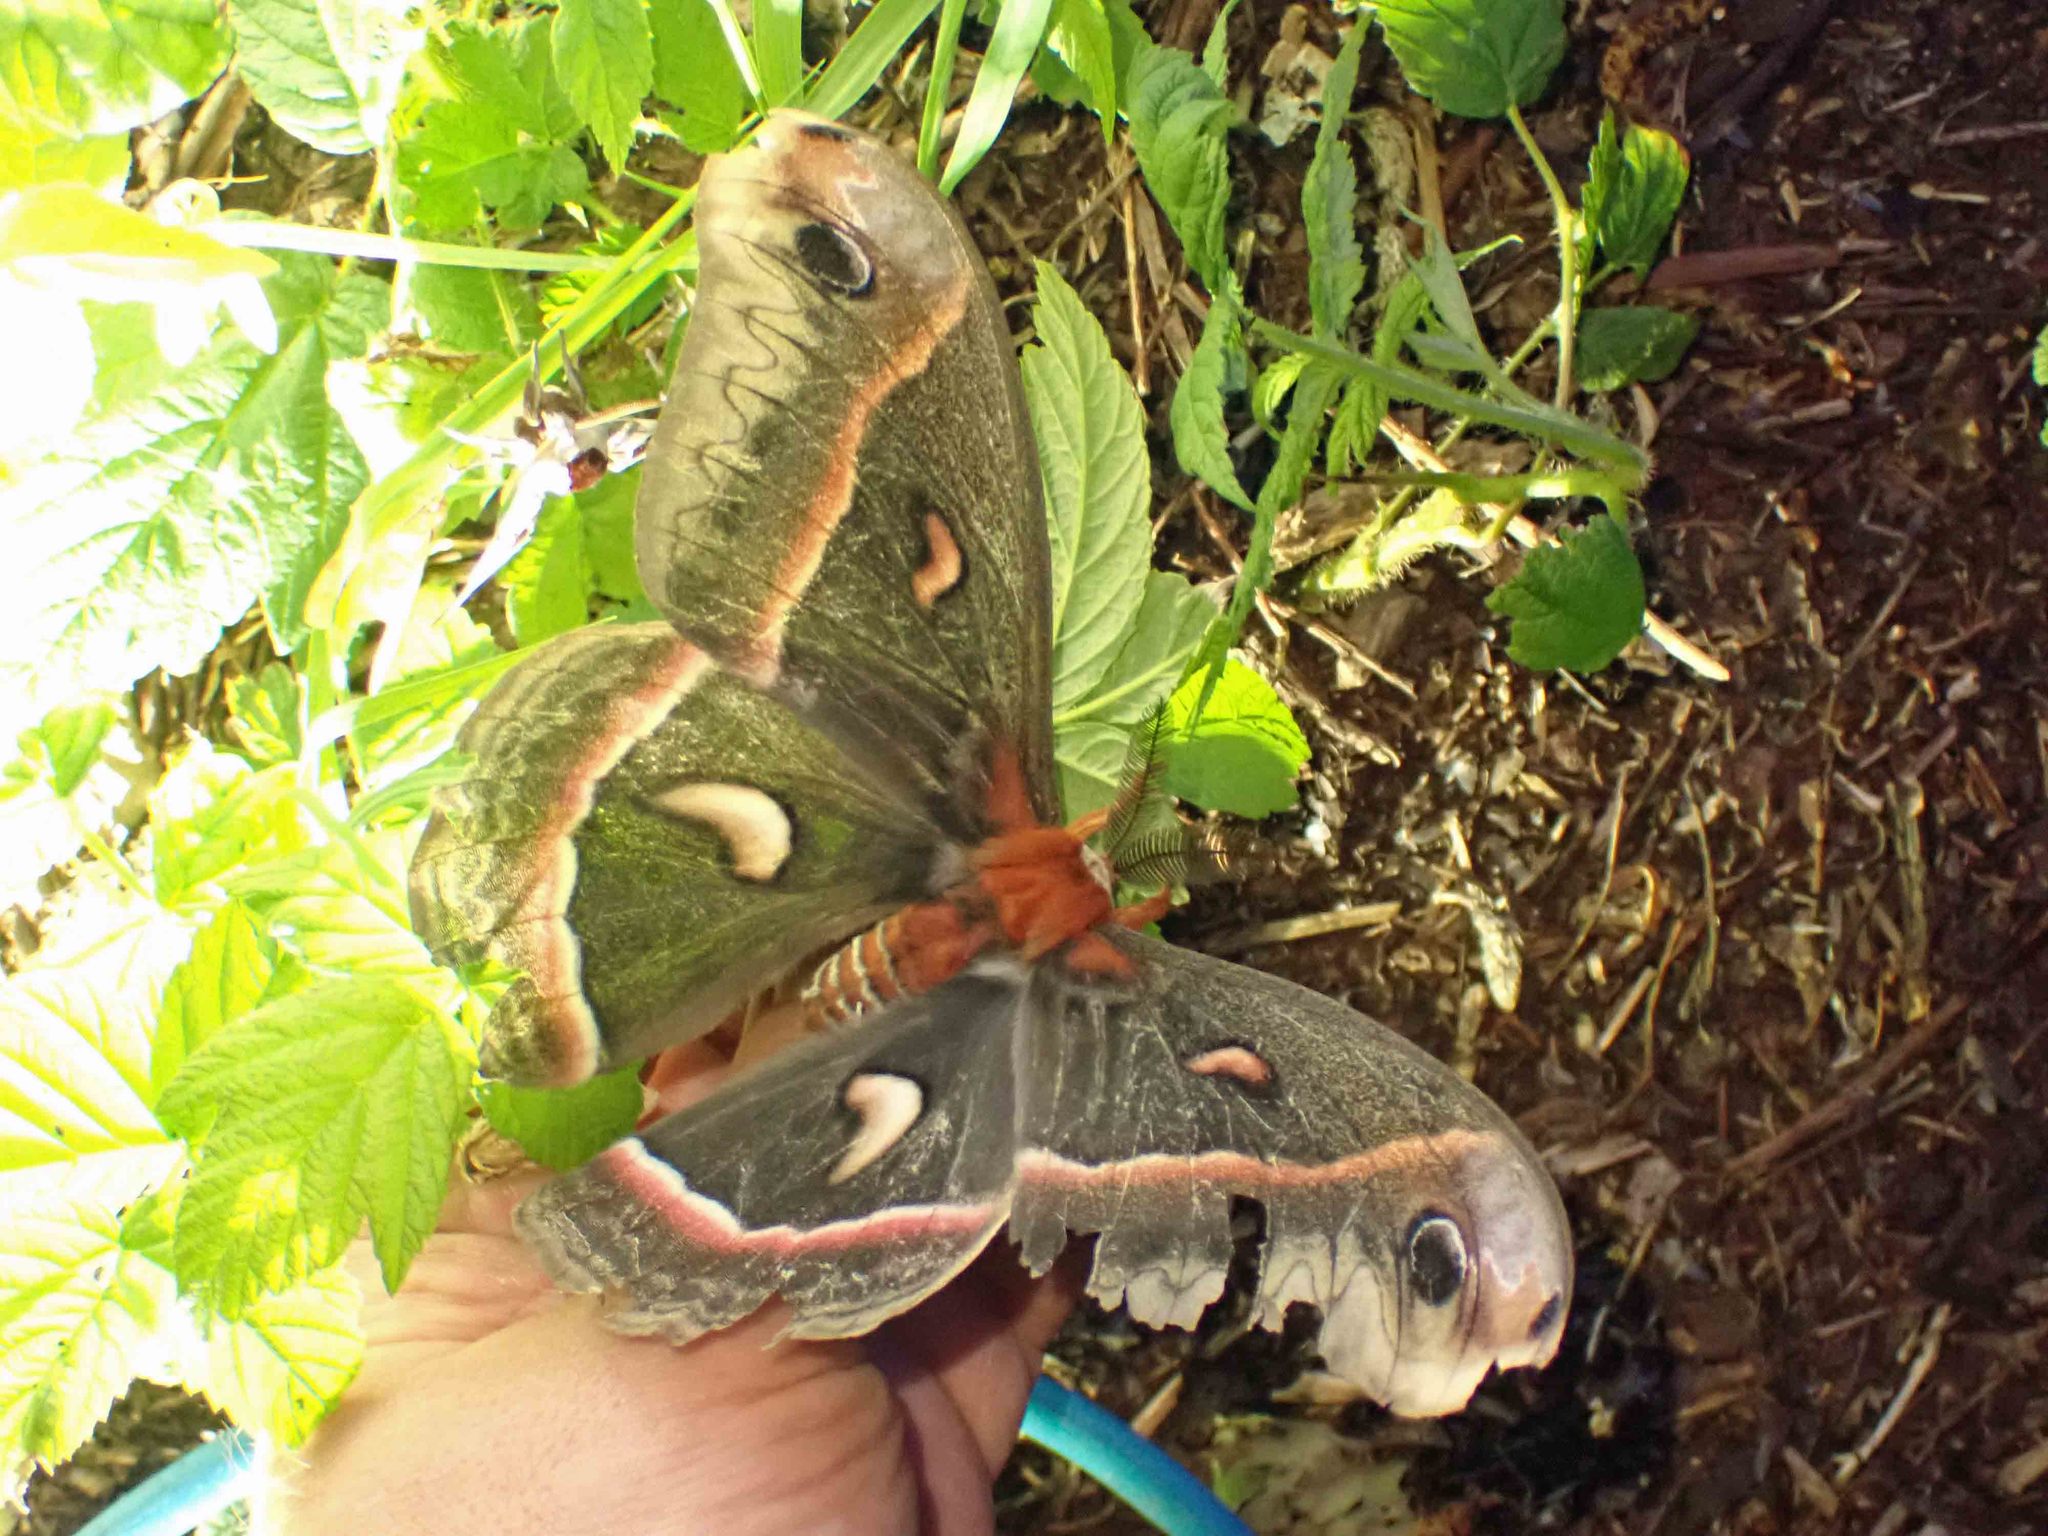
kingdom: Animalia
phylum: Arthropoda
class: Insecta
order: Lepidoptera
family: Saturniidae
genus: Hyalophora
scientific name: Hyalophora cecropia
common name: Cecropia silkmoth
